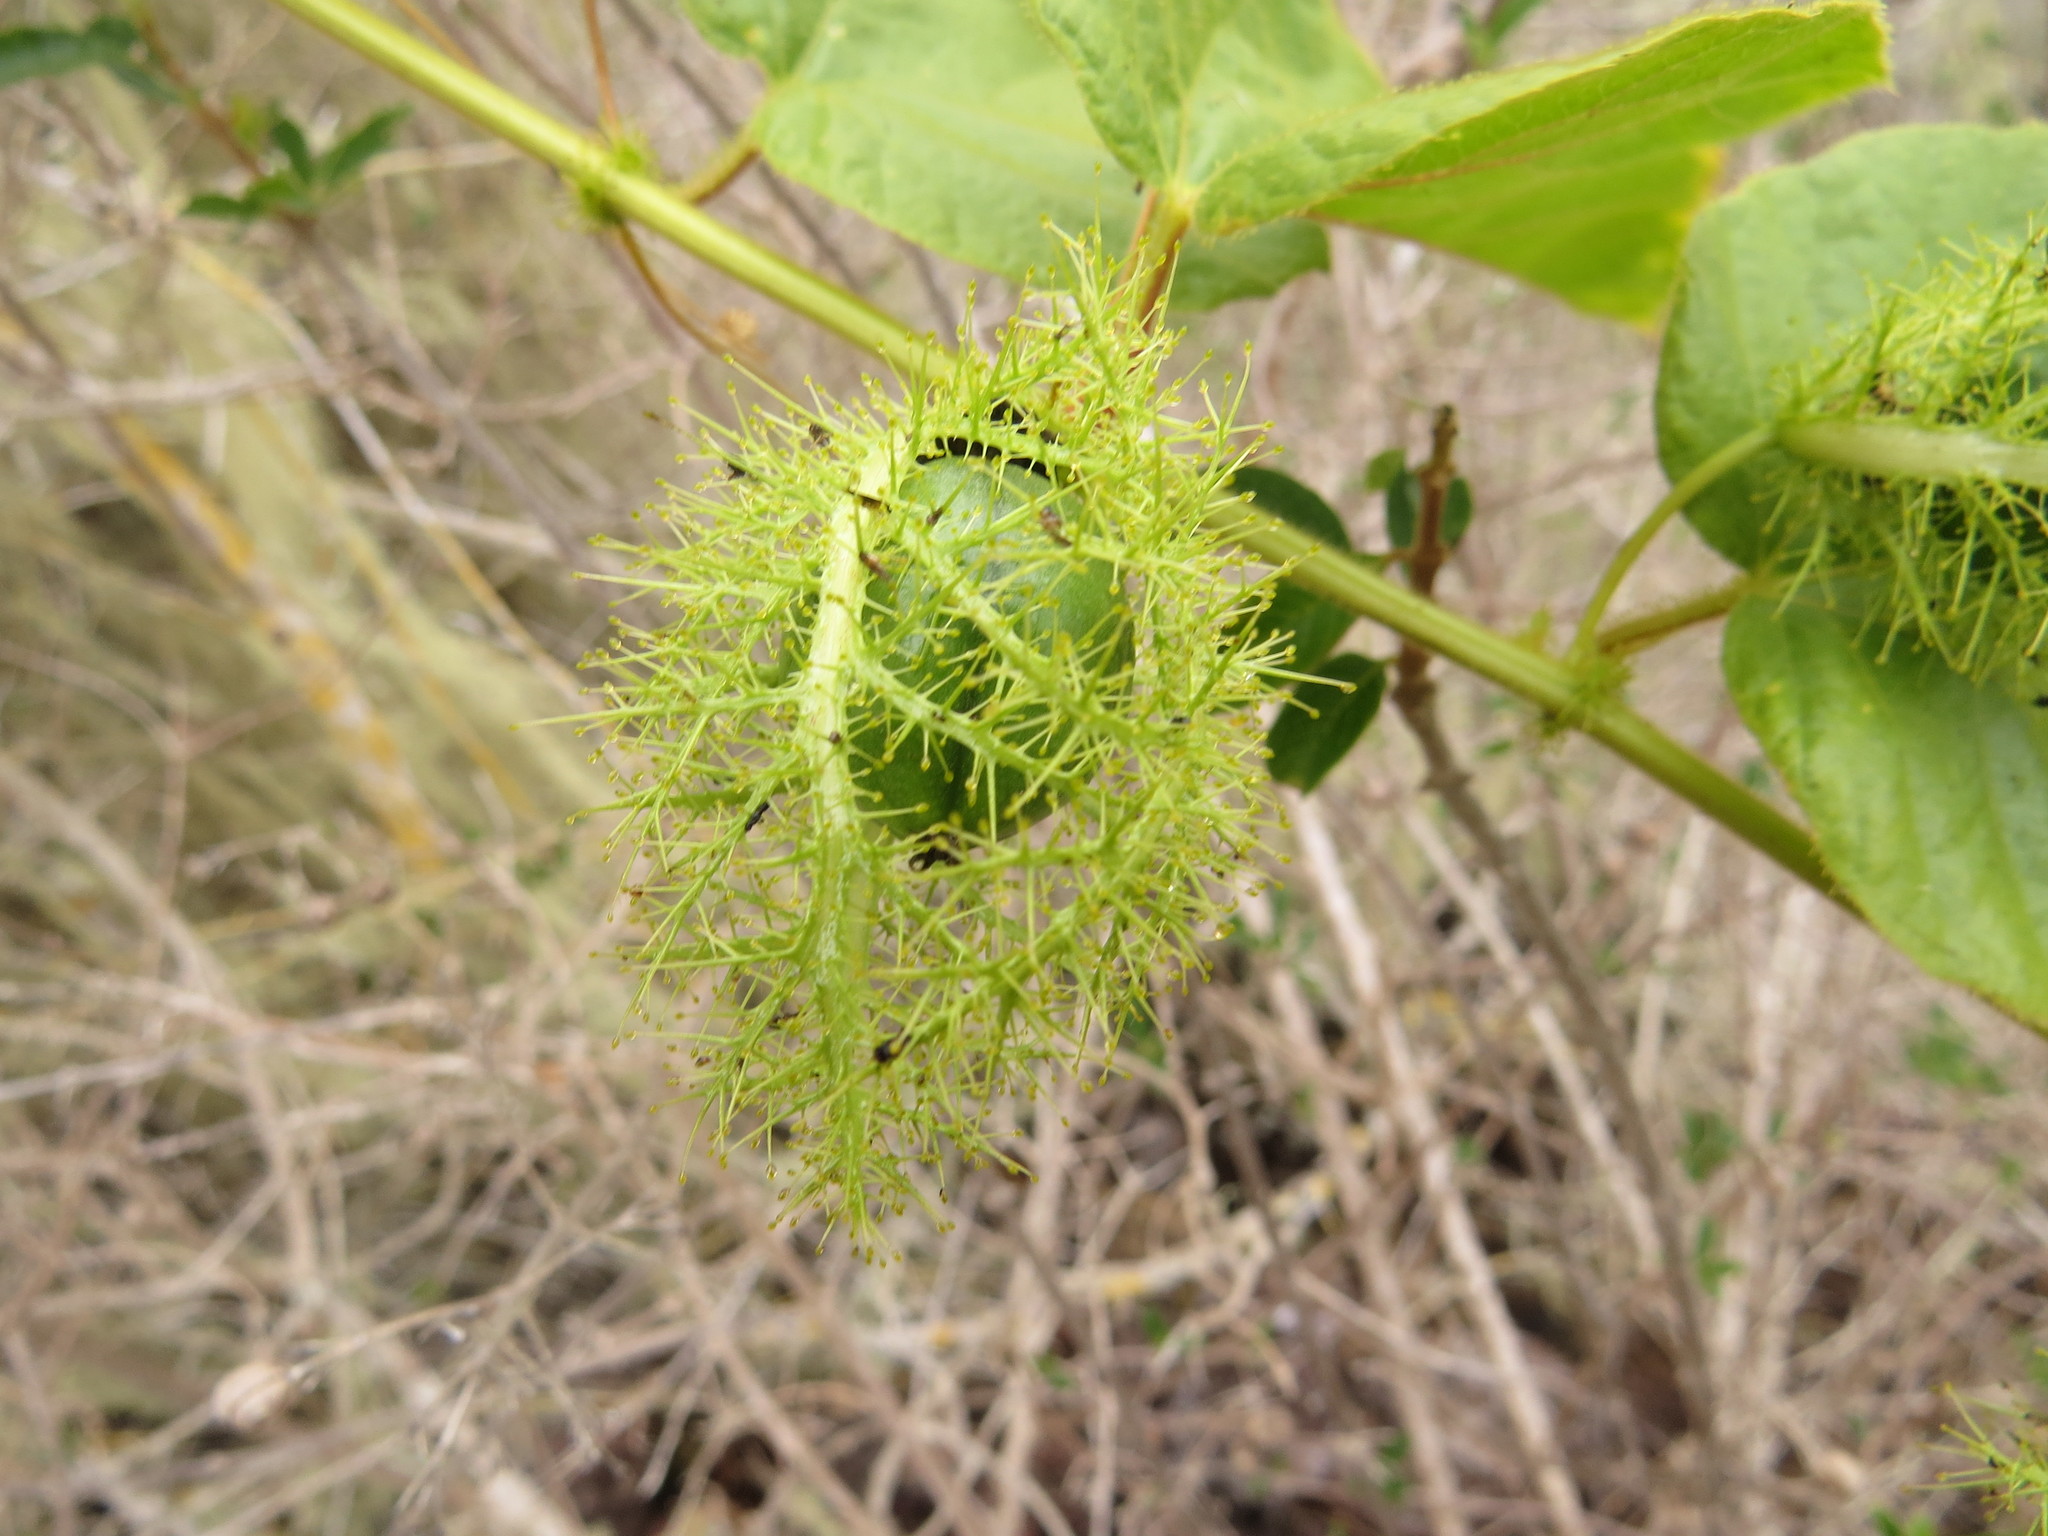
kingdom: Plantae
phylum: Tracheophyta
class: Magnoliopsida
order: Malpighiales
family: Passifloraceae
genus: Passiflora
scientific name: Passiflora vesicaria
